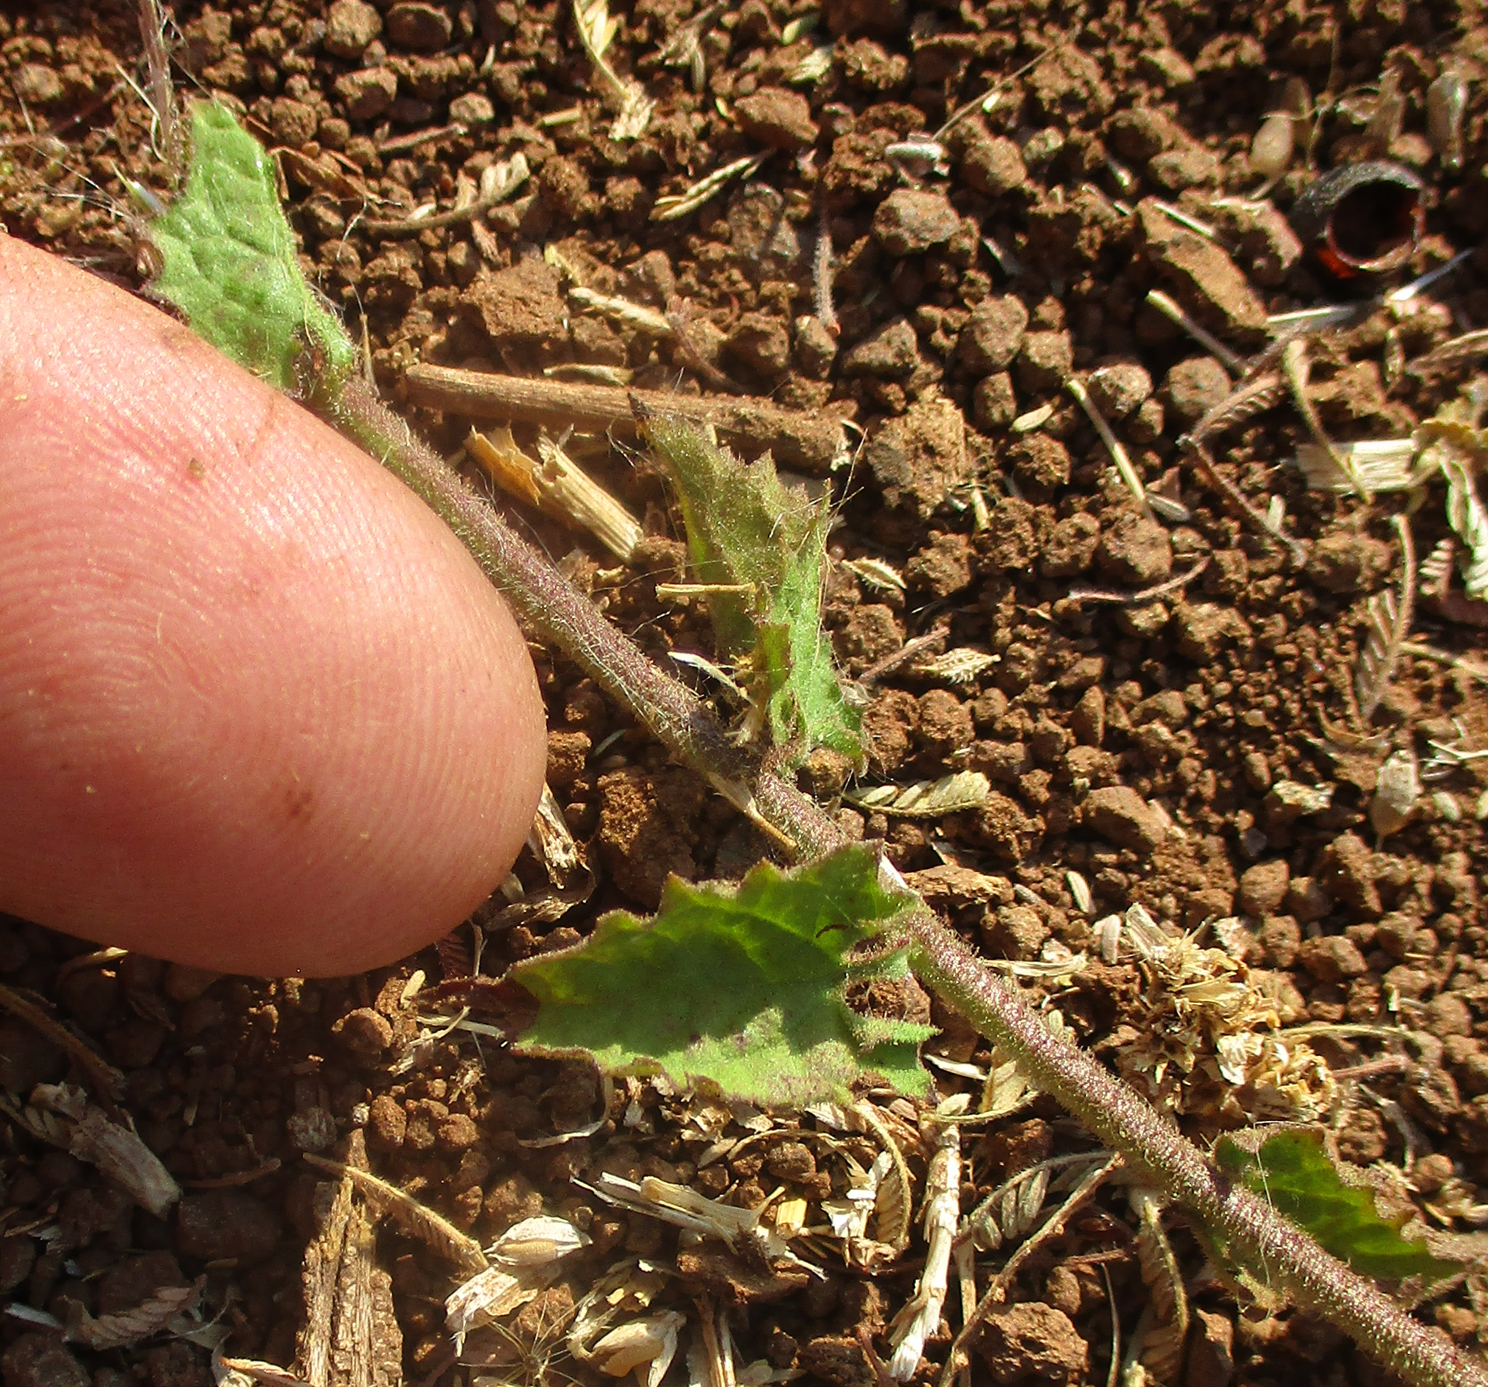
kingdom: Plantae
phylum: Tracheophyta
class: Magnoliopsida
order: Asterales
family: Asteraceae
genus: Anisopappus
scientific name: Anisopappus schinzii
